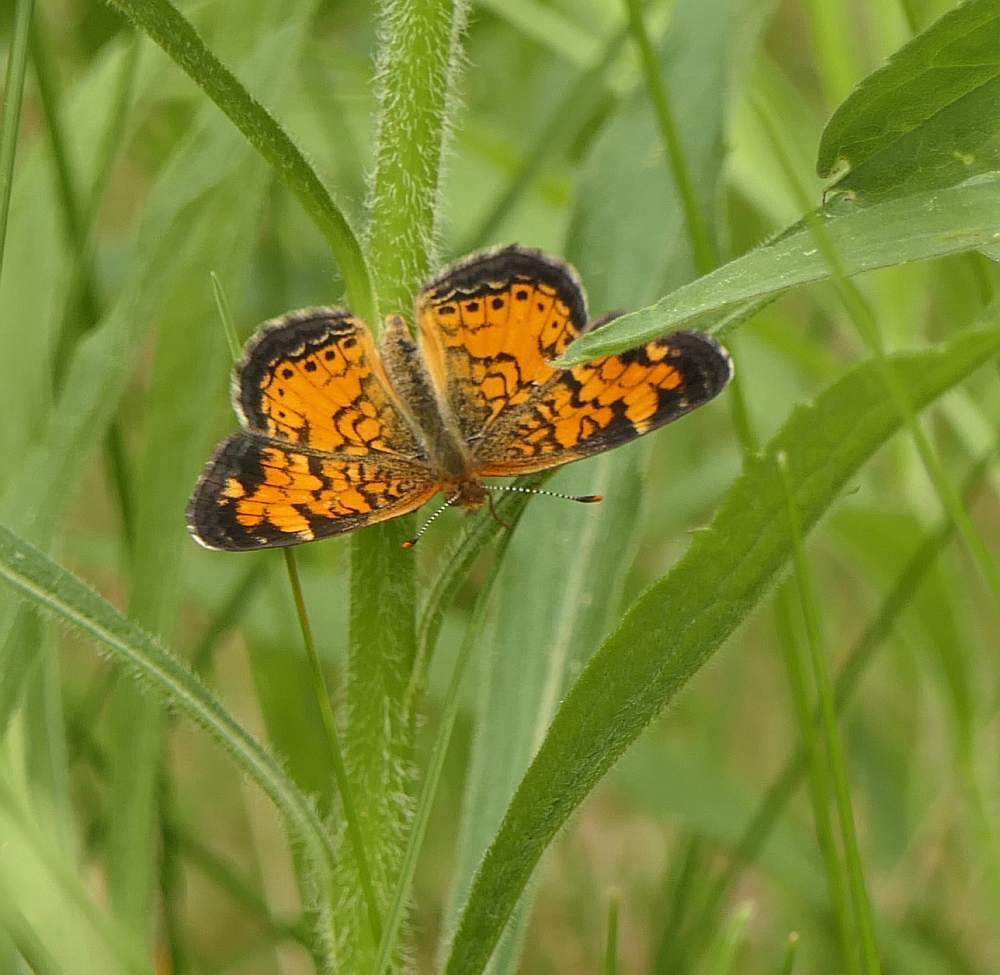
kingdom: Animalia
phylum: Arthropoda
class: Insecta
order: Lepidoptera
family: Nymphalidae
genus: Phyciodes
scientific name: Phyciodes tharos
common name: Pearl crescent
